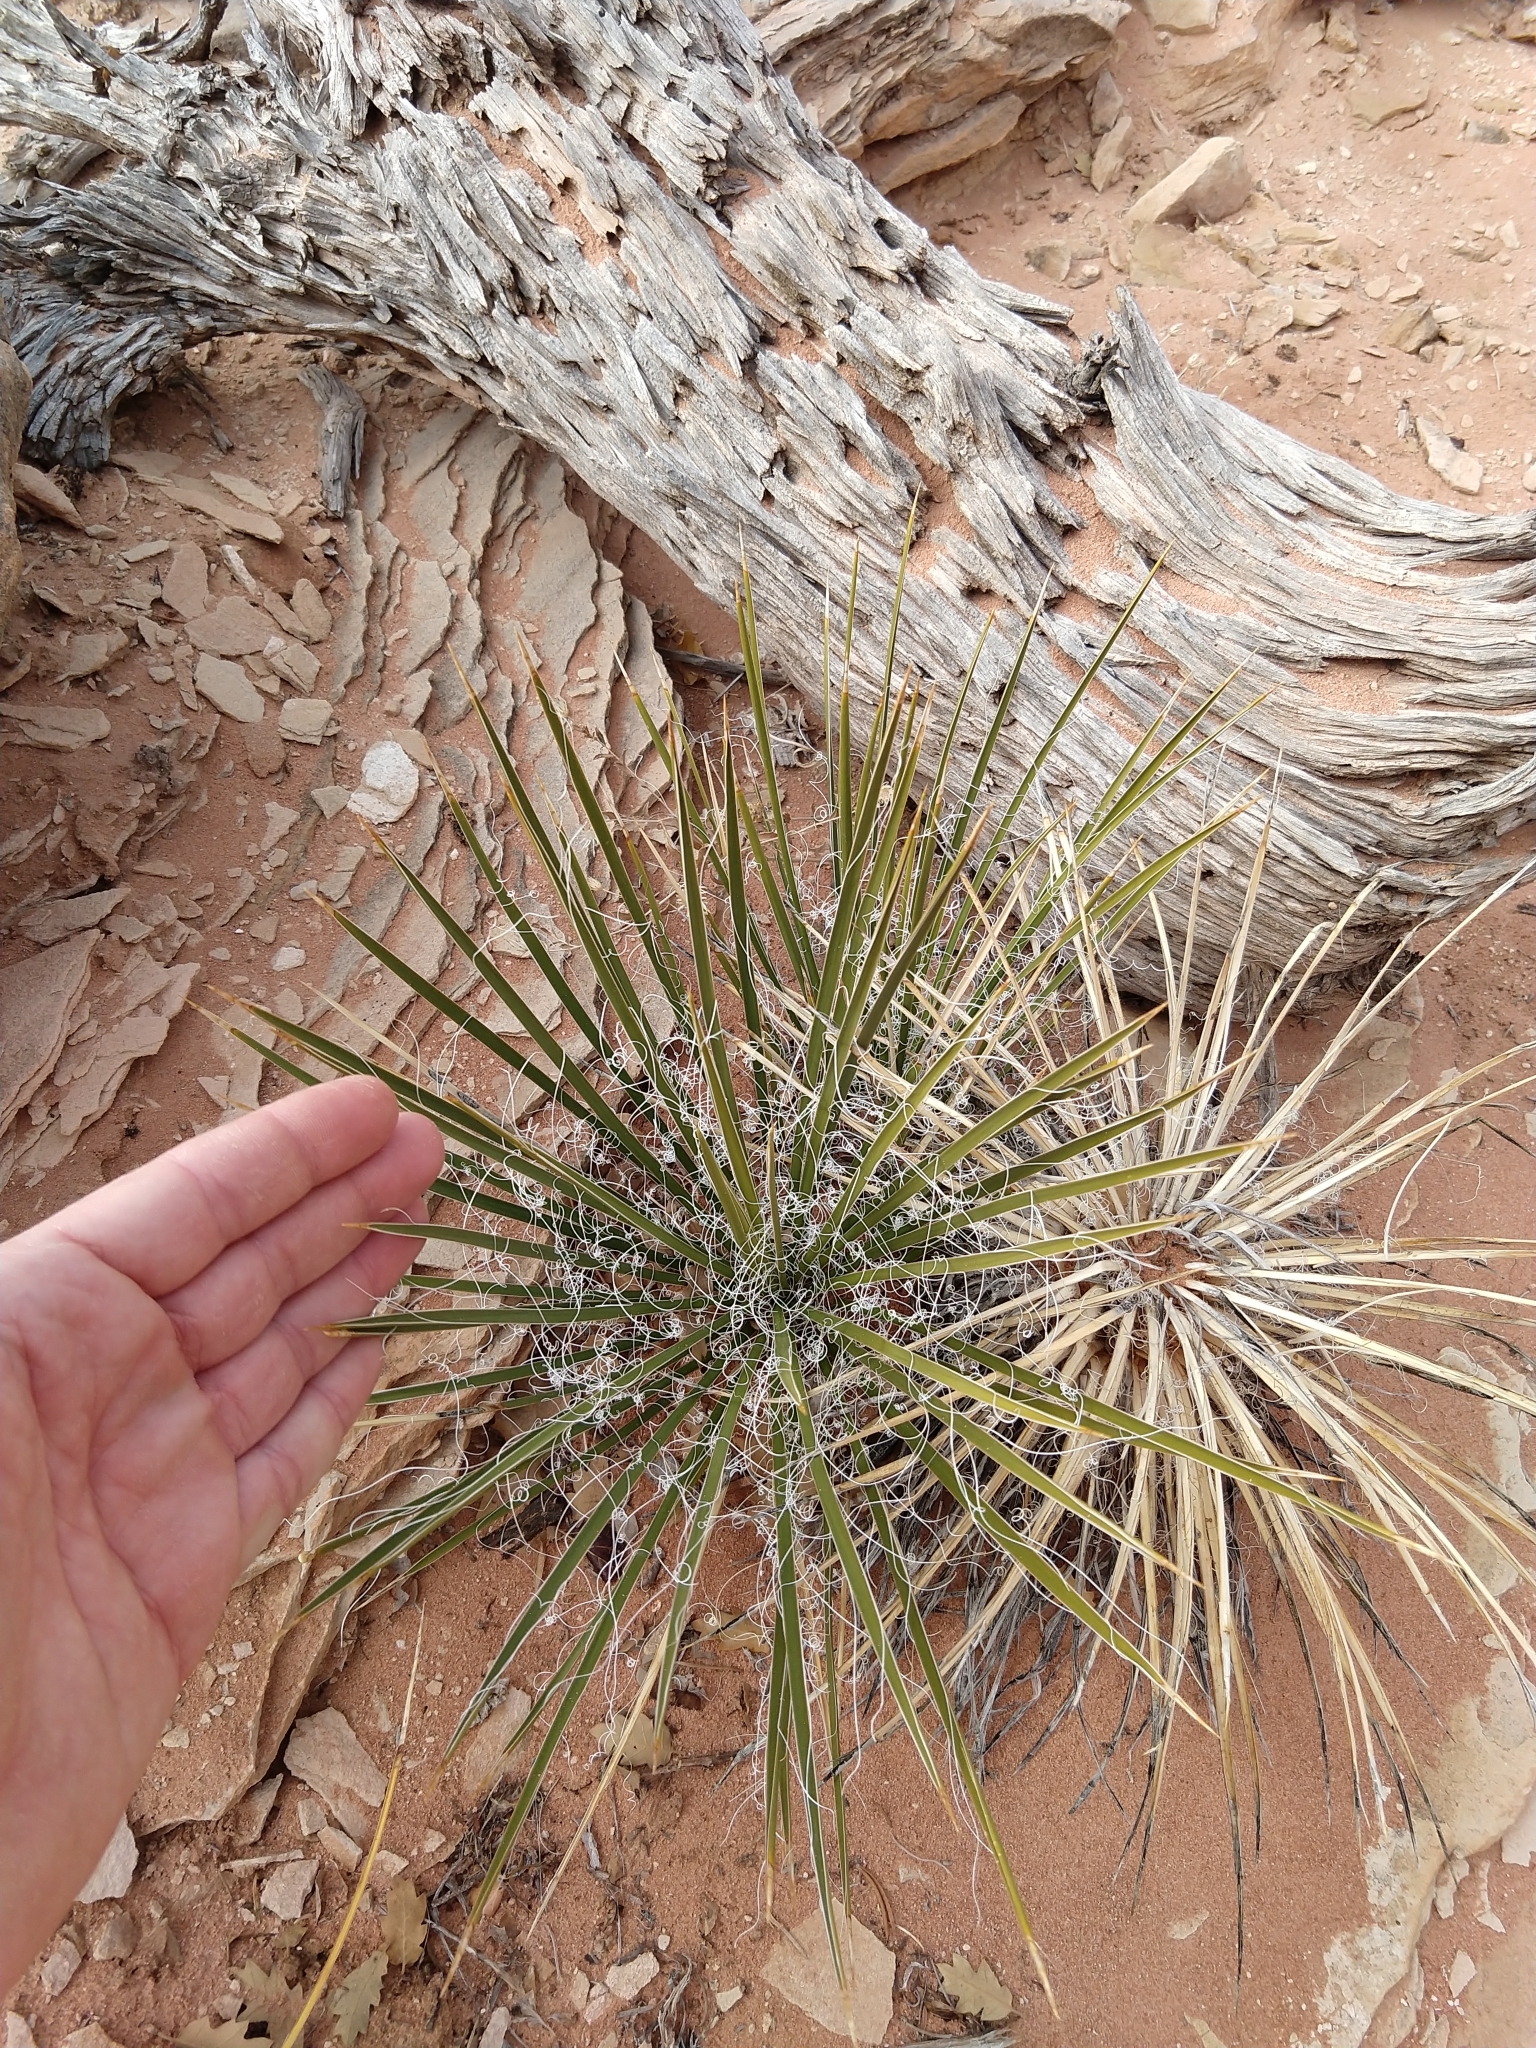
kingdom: Plantae
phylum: Tracheophyta
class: Liliopsida
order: Asparagales
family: Asparagaceae
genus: Yucca
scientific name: Yucca angustissima
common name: Narrowleaf yucca
